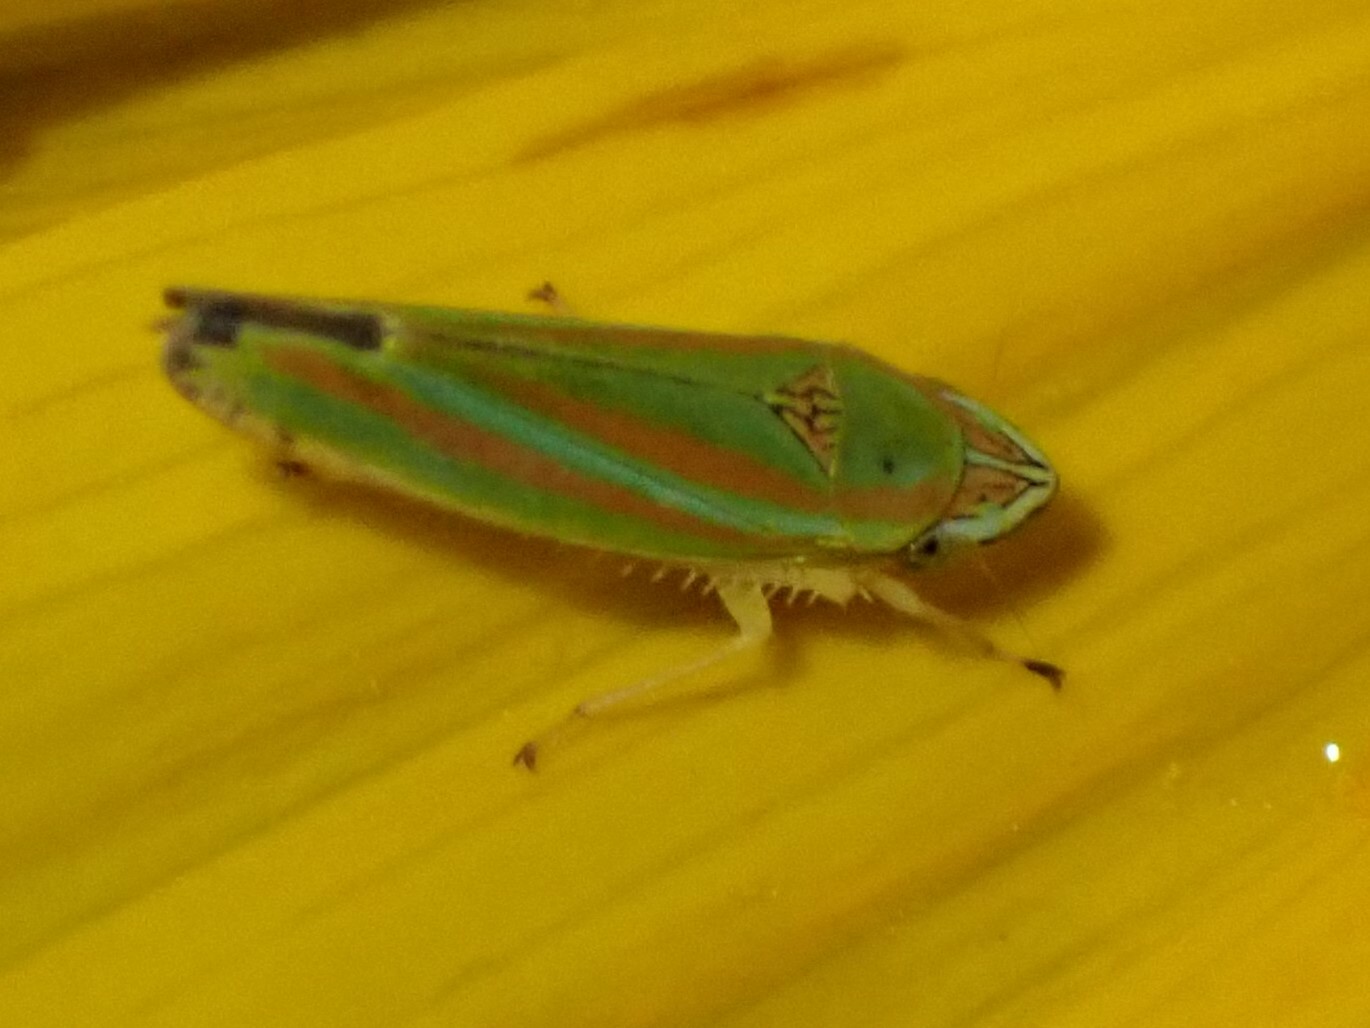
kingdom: Animalia
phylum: Arthropoda
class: Insecta
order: Hemiptera
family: Cicadellidae
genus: Graphocephala
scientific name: Graphocephala versuta
